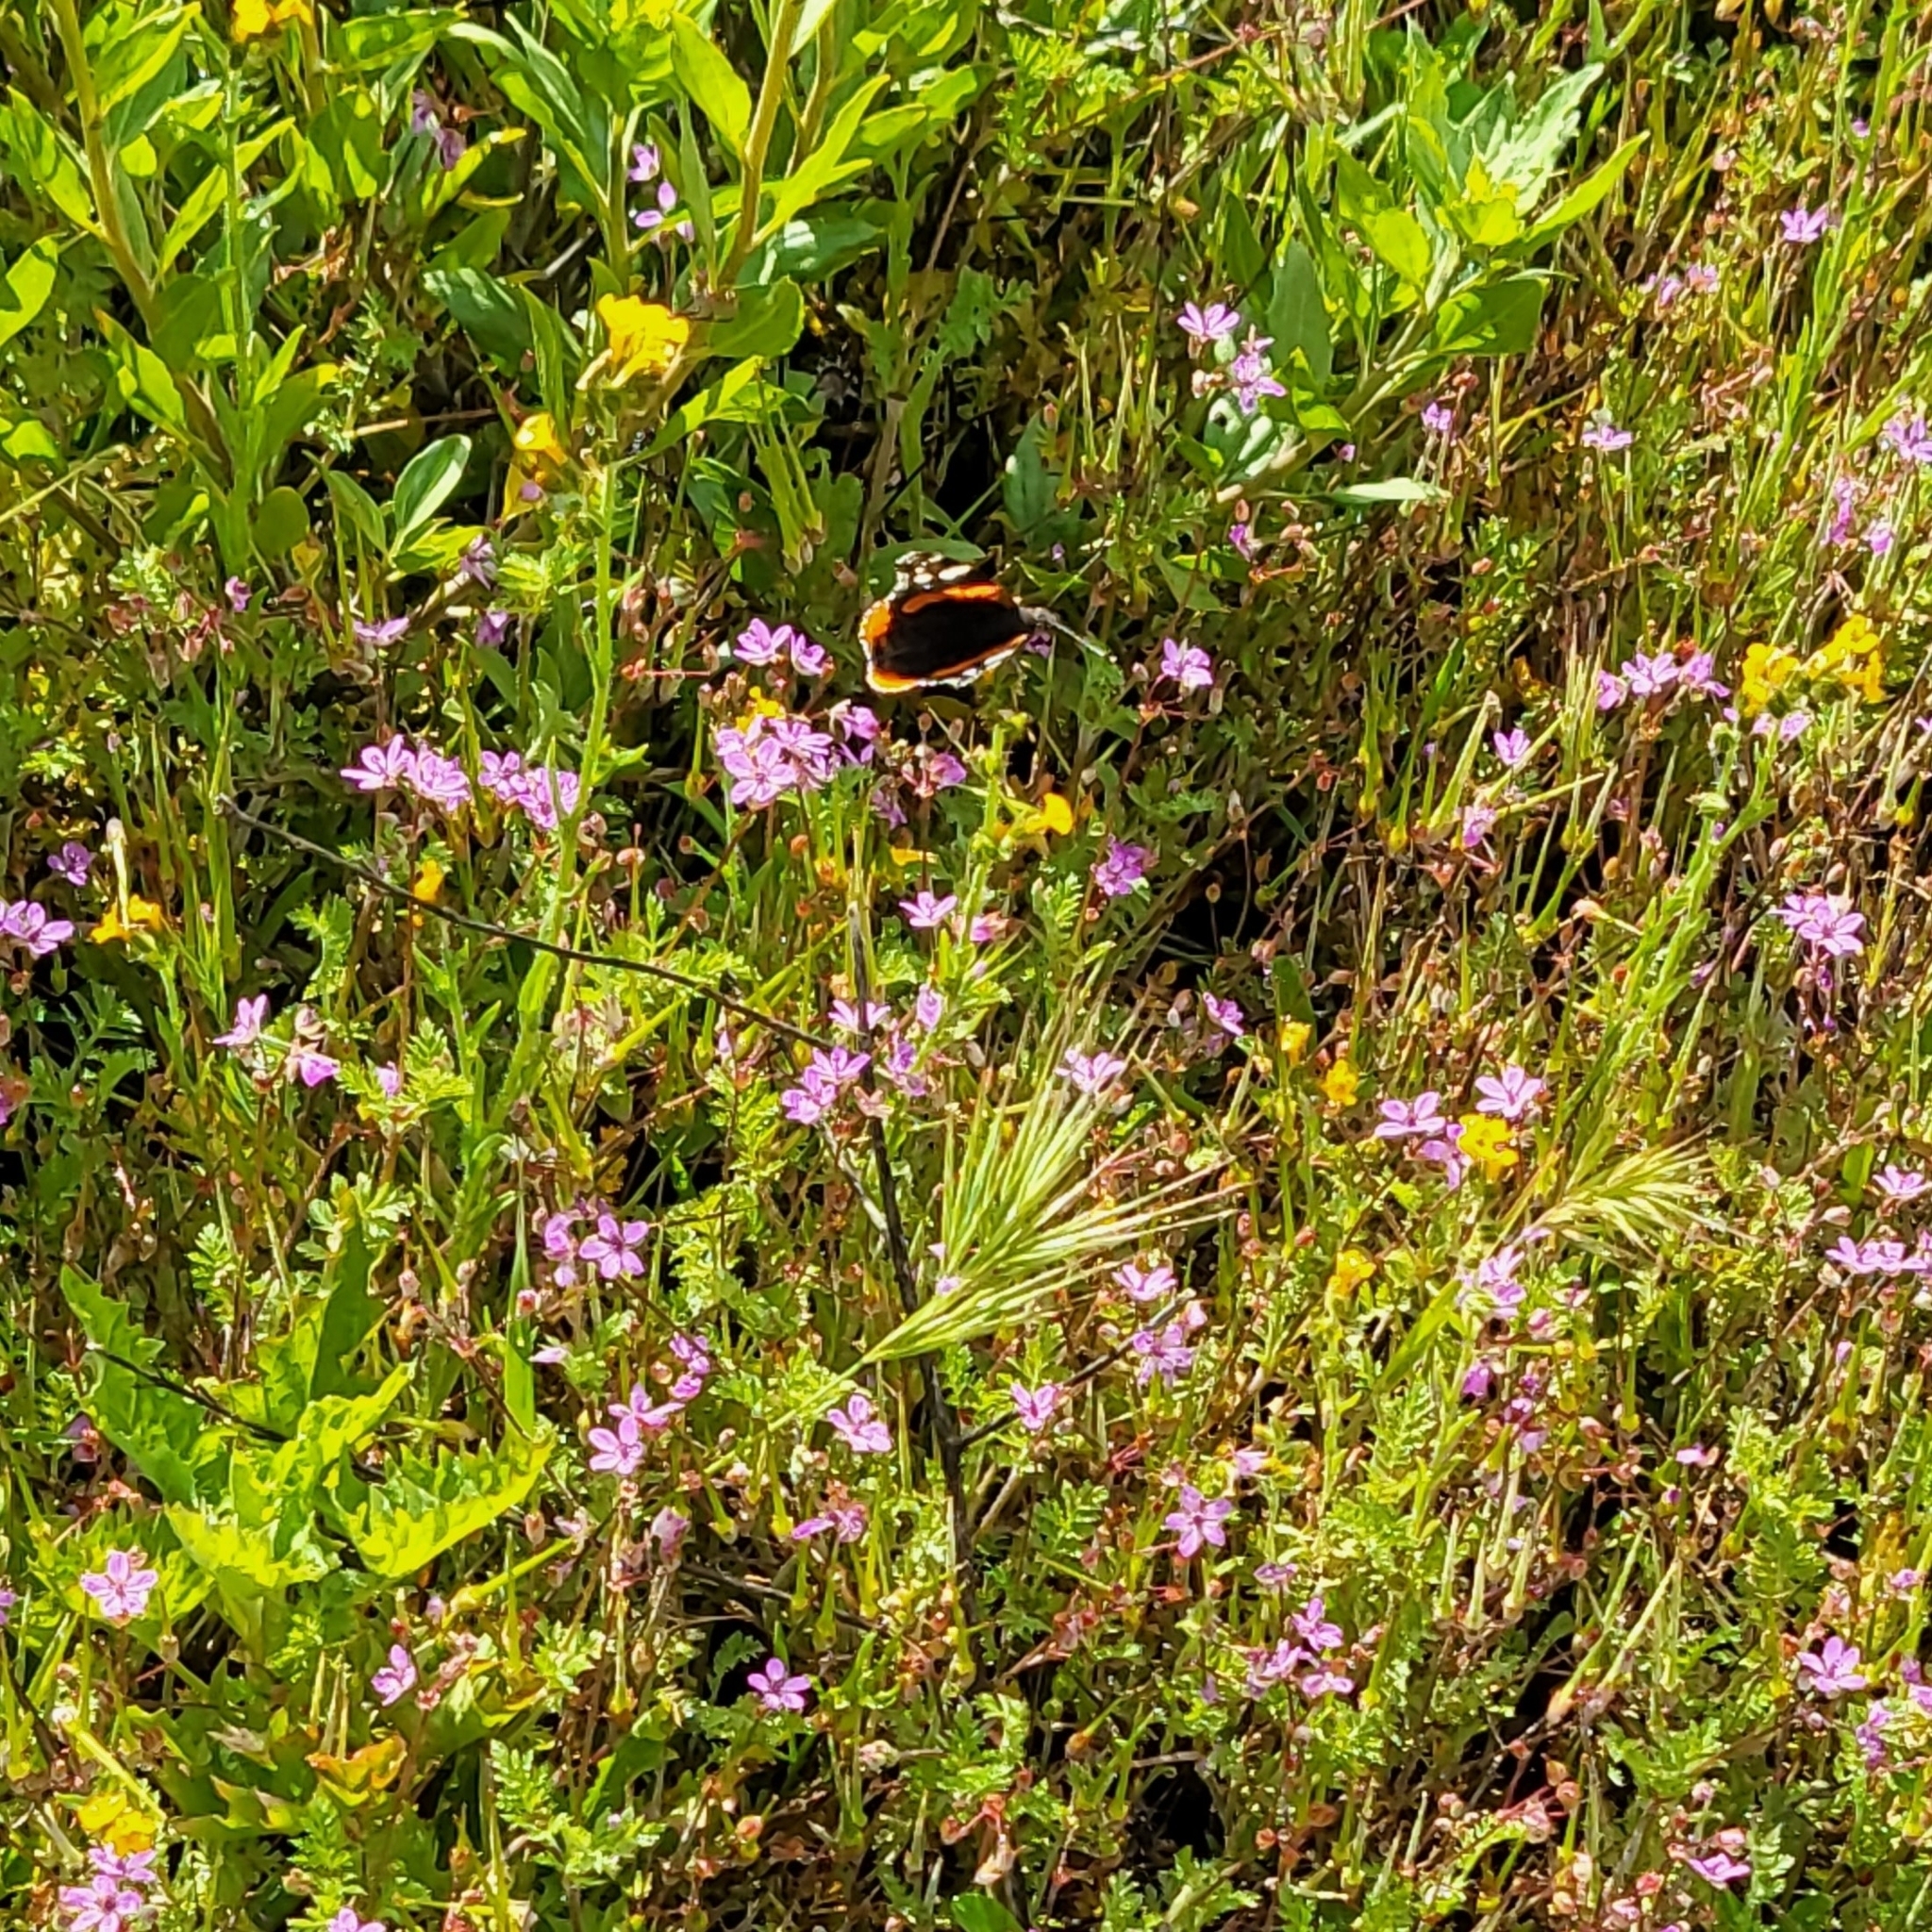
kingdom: Animalia
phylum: Arthropoda
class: Insecta
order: Lepidoptera
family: Nymphalidae
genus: Vanessa
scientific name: Vanessa atalanta
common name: Red admiral
